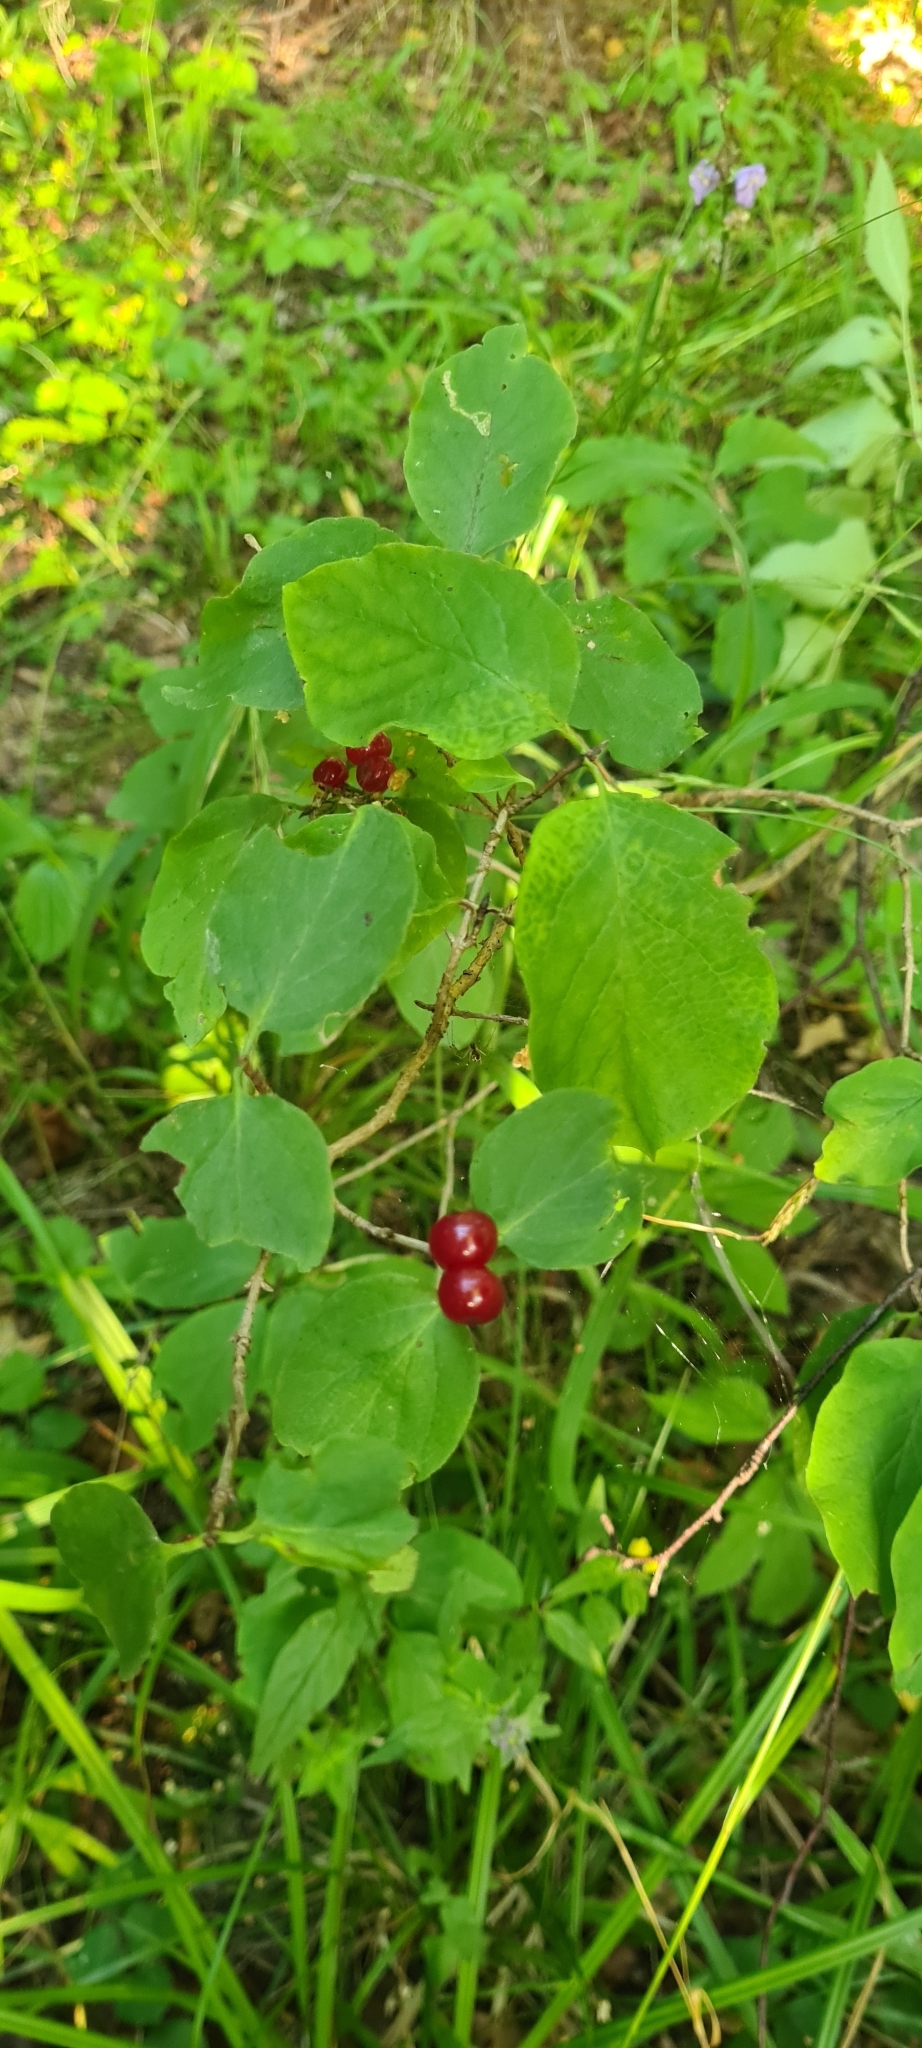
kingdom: Plantae
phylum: Tracheophyta
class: Magnoliopsida
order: Dipsacales
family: Caprifoliaceae
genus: Lonicera
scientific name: Lonicera xylosteum
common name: Fly honeysuckle
